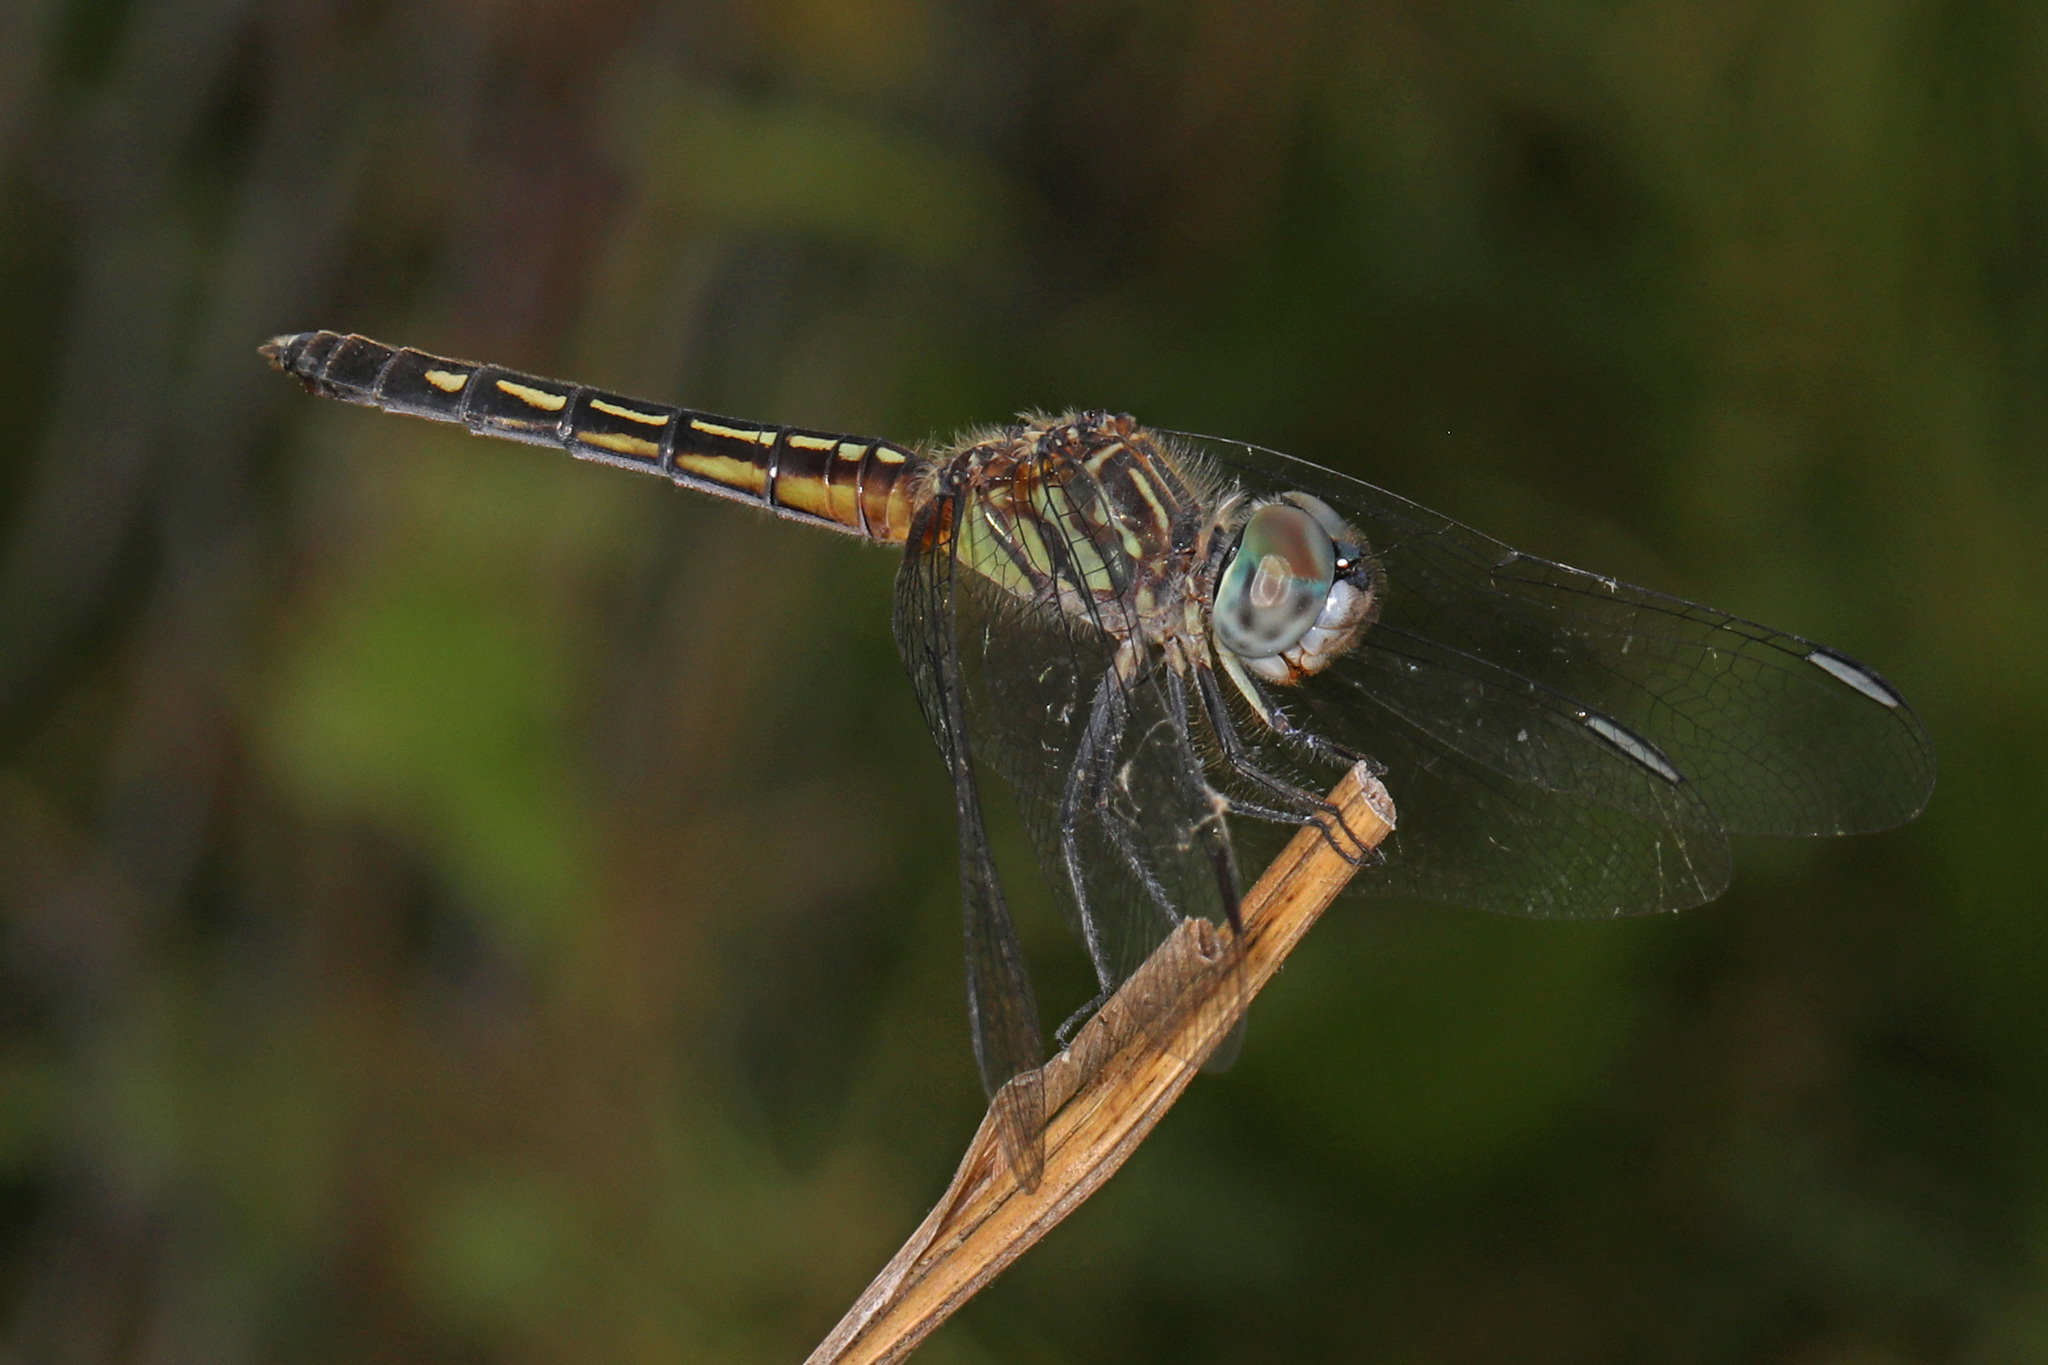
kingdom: Animalia
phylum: Arthropoda
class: Insecta
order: Odonata
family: Libellulidae
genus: Pachydiplax
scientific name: Pachydiplax longipennis
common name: Blue dasher
